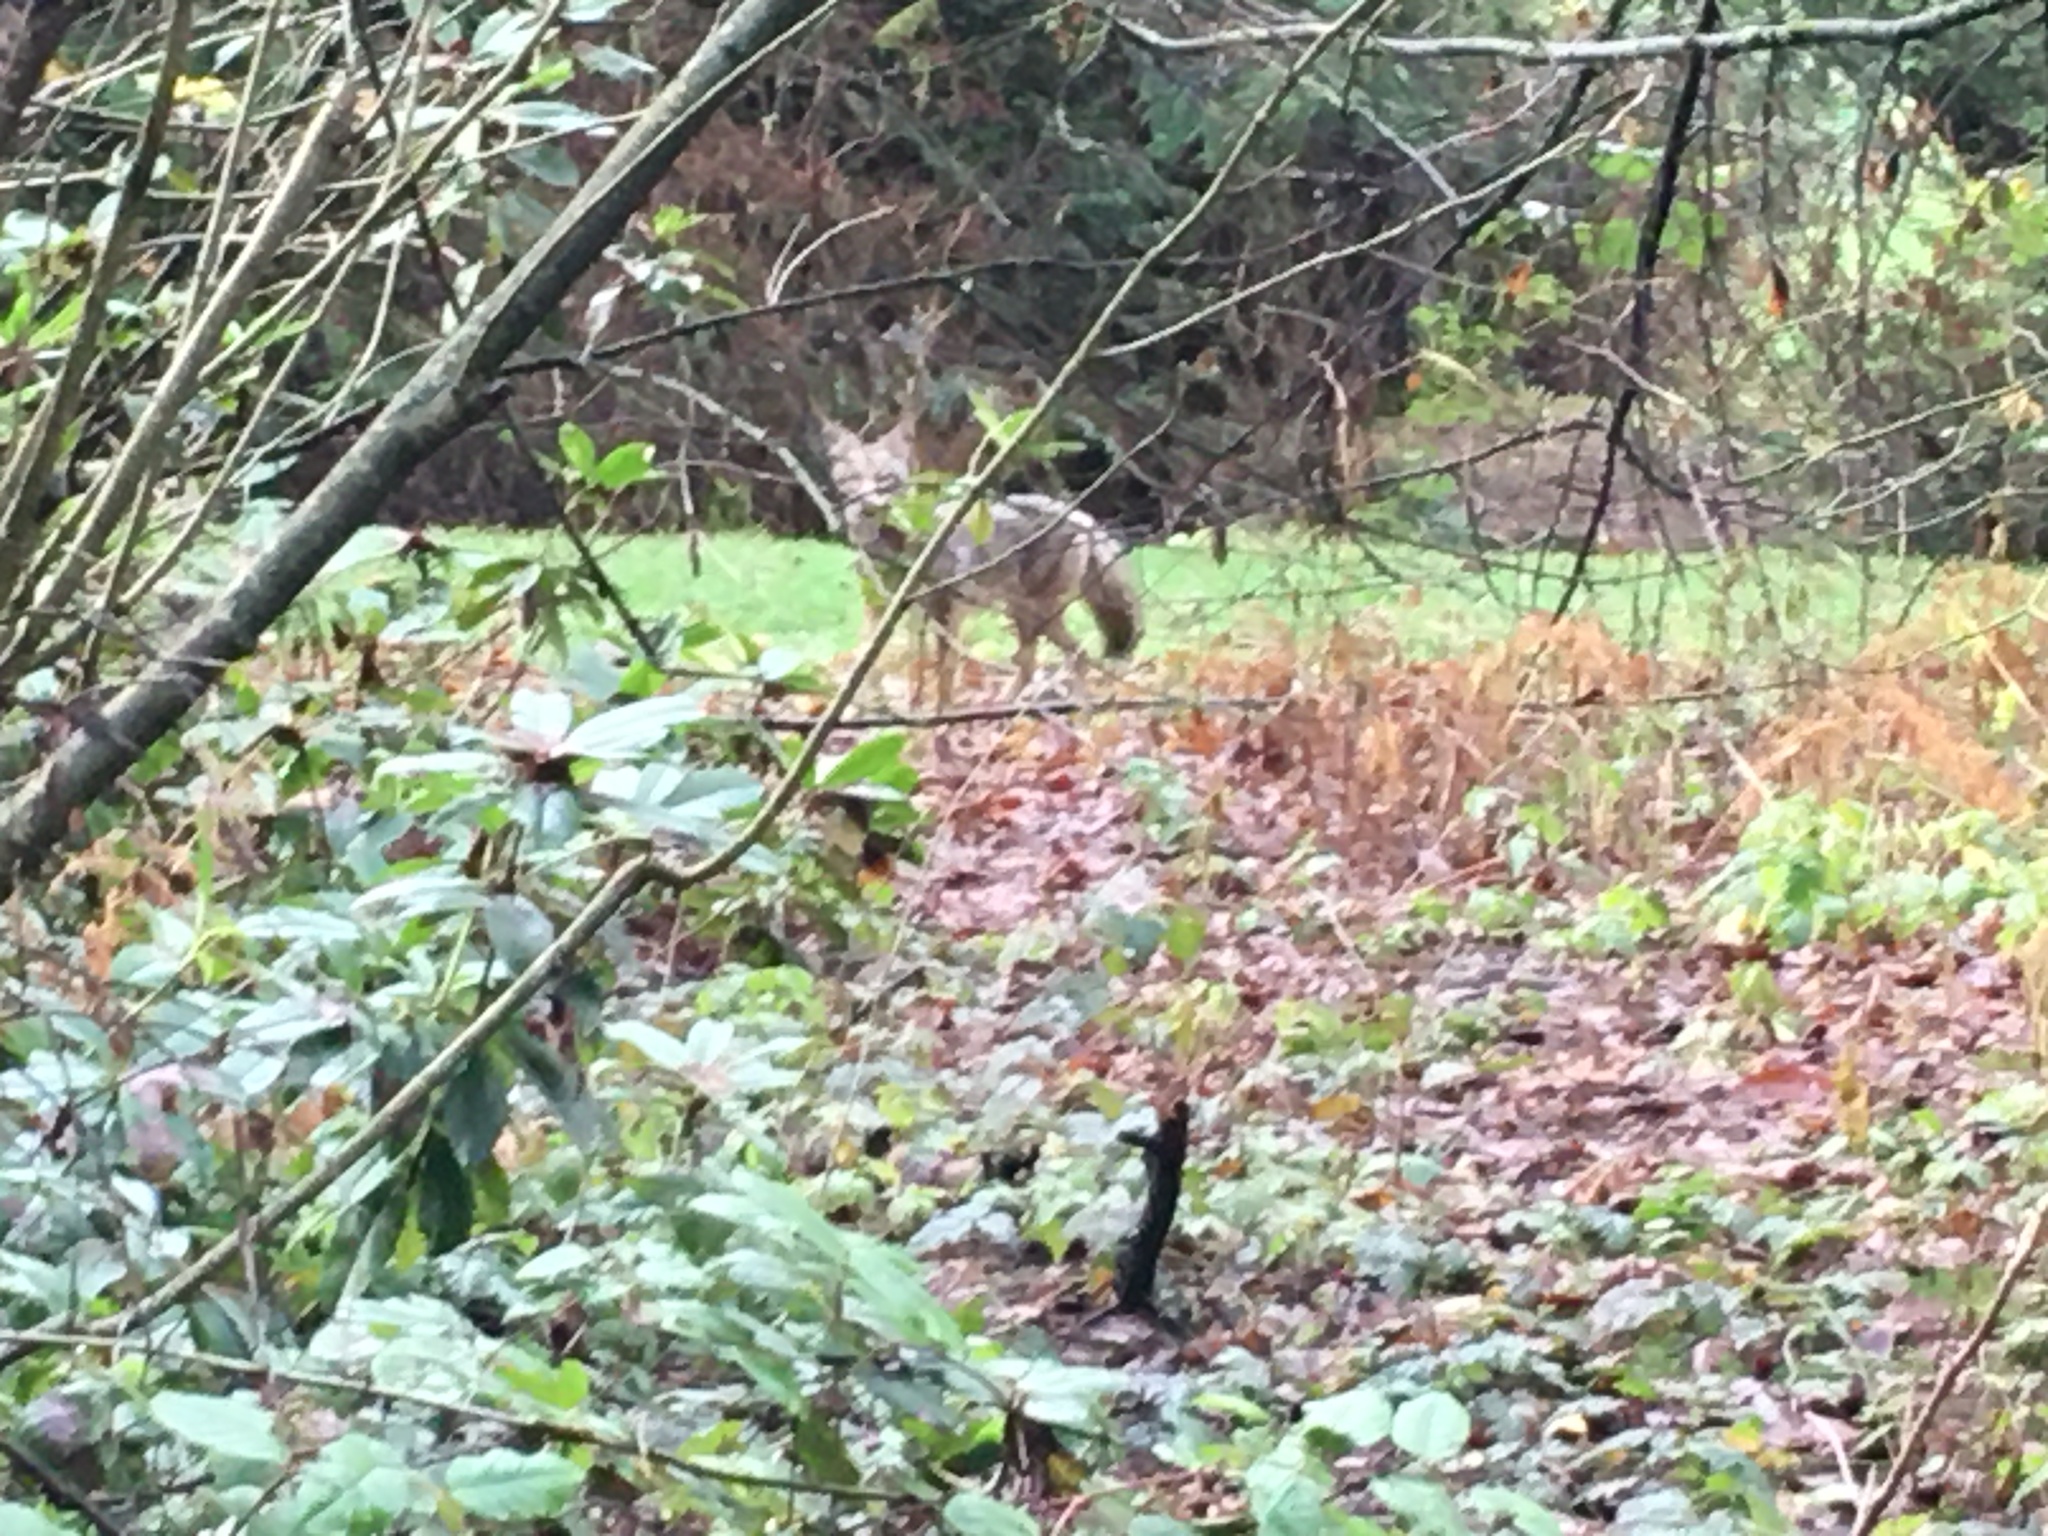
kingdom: Animalia
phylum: Chordata
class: Mammalia
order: Carnivora
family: Canidae
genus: Canis
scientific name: Canis latrans
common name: Coyote
